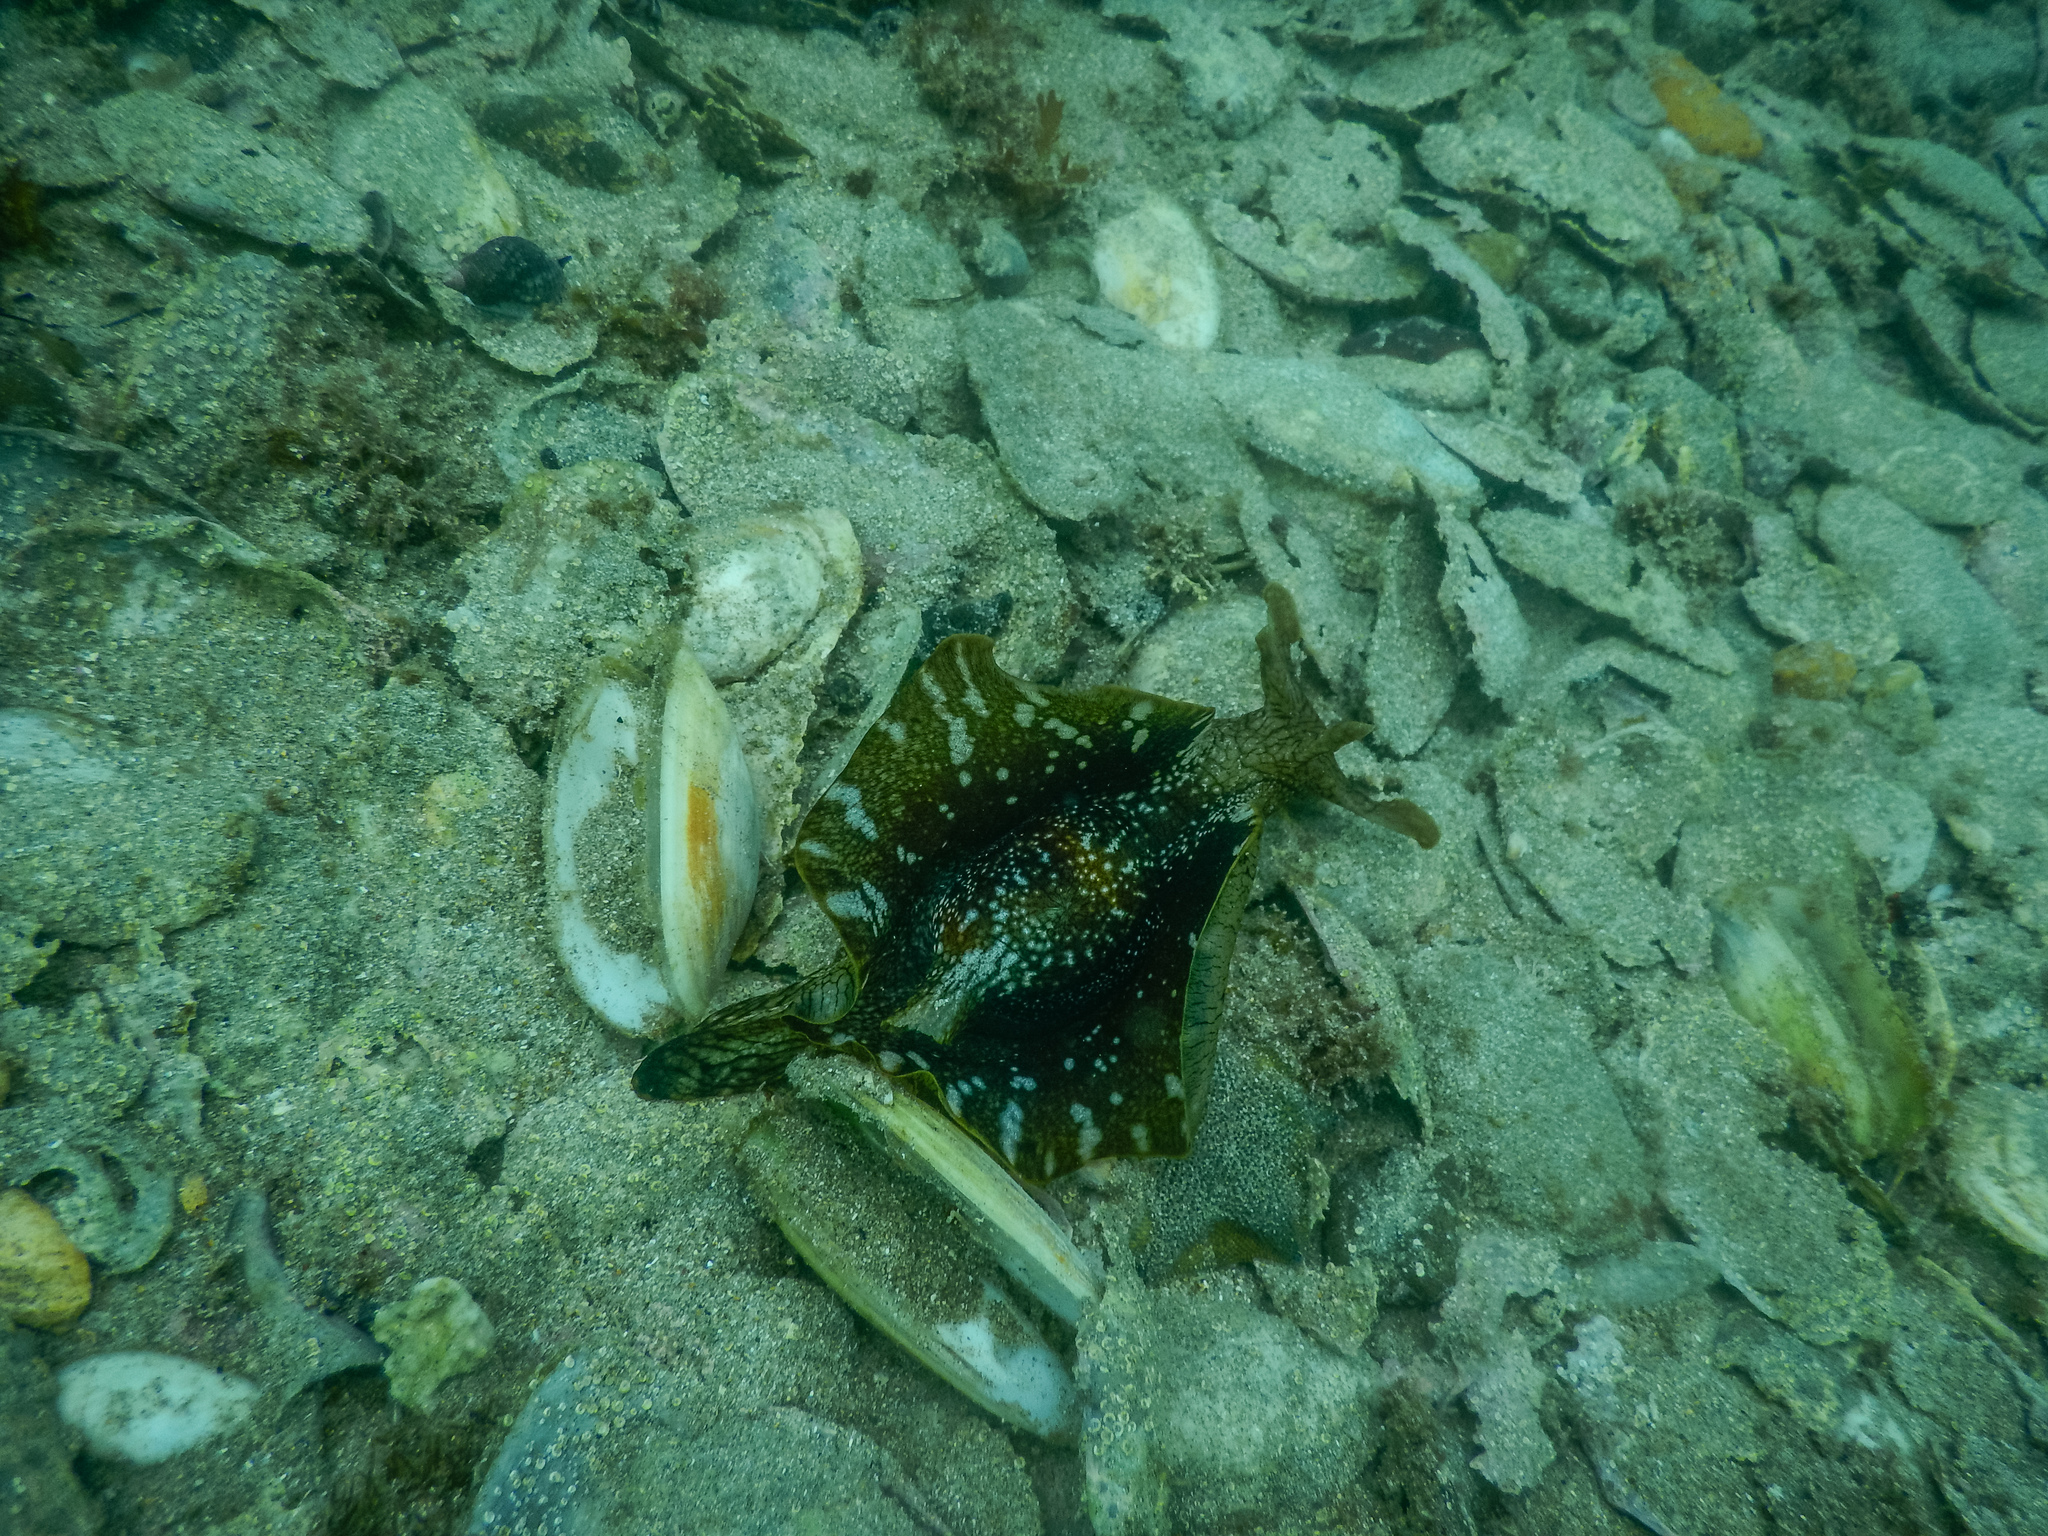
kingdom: Animalia
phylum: Mollusca
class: Gastropoda
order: Aplysiida
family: Aplysiidae
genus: Aplysia
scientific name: Aplysia keraudreni
